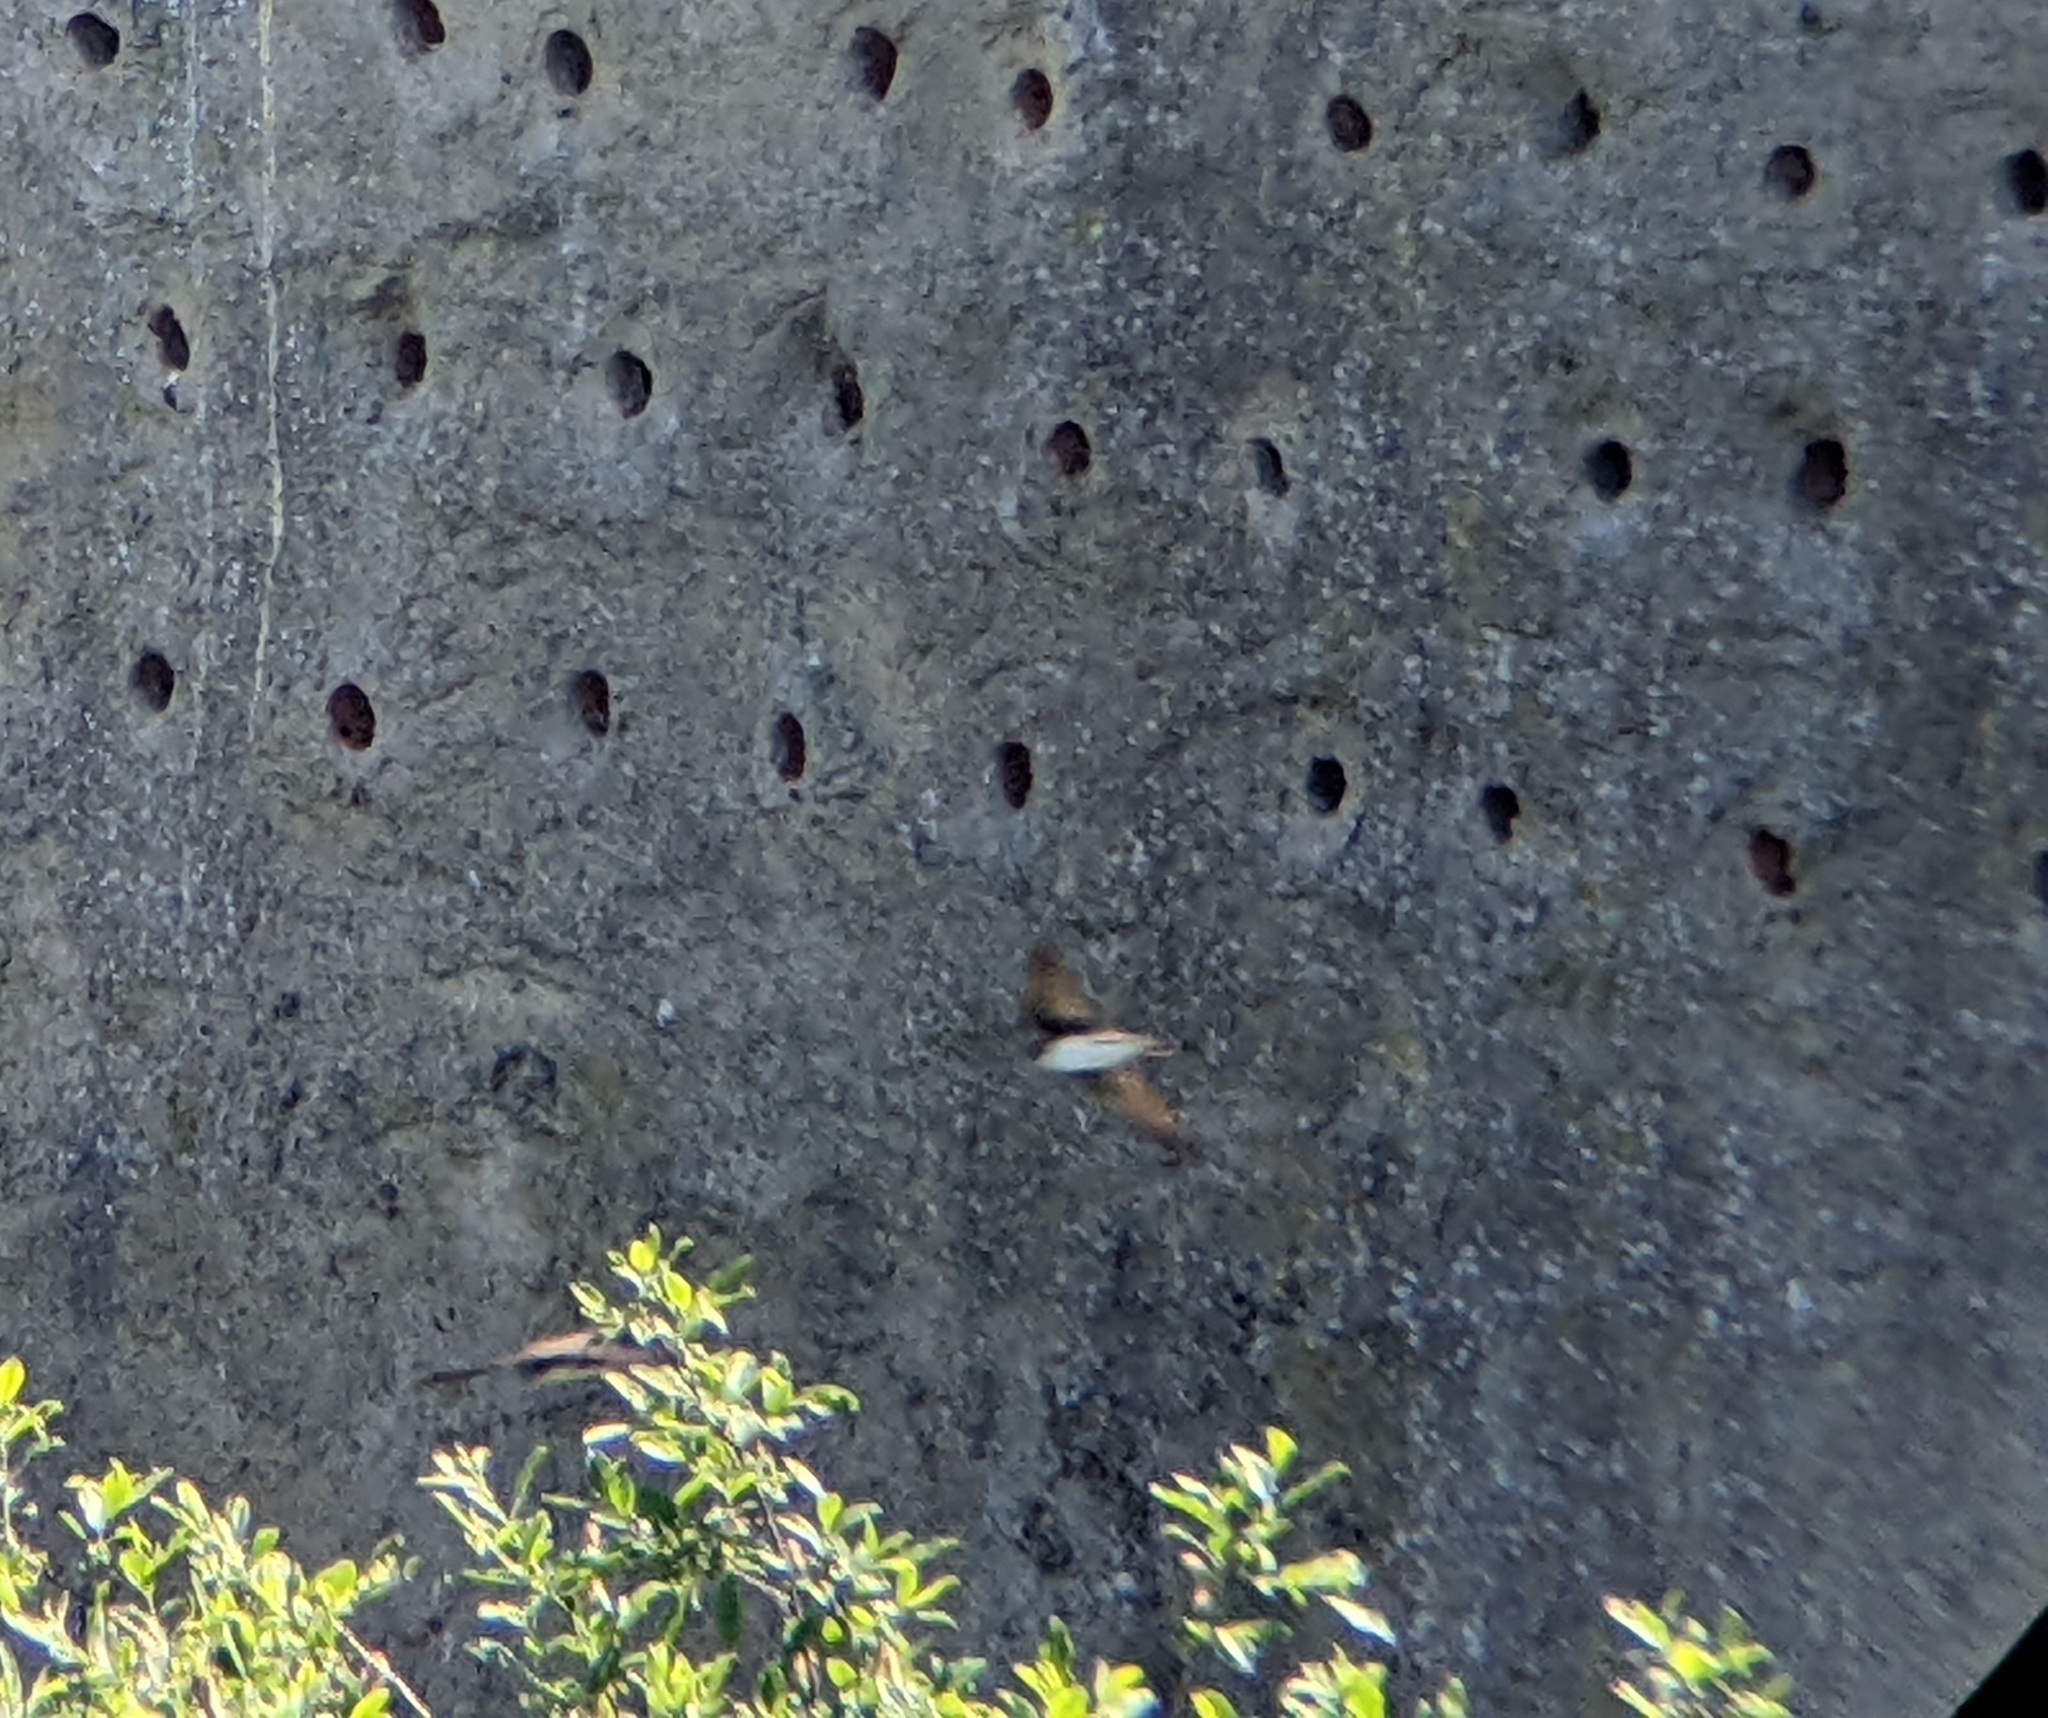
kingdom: Animalia
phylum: Chordata
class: Aves
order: Passeriformes
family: Hirundinidae
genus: Riparia
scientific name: Riparia riparia
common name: Sand martin
